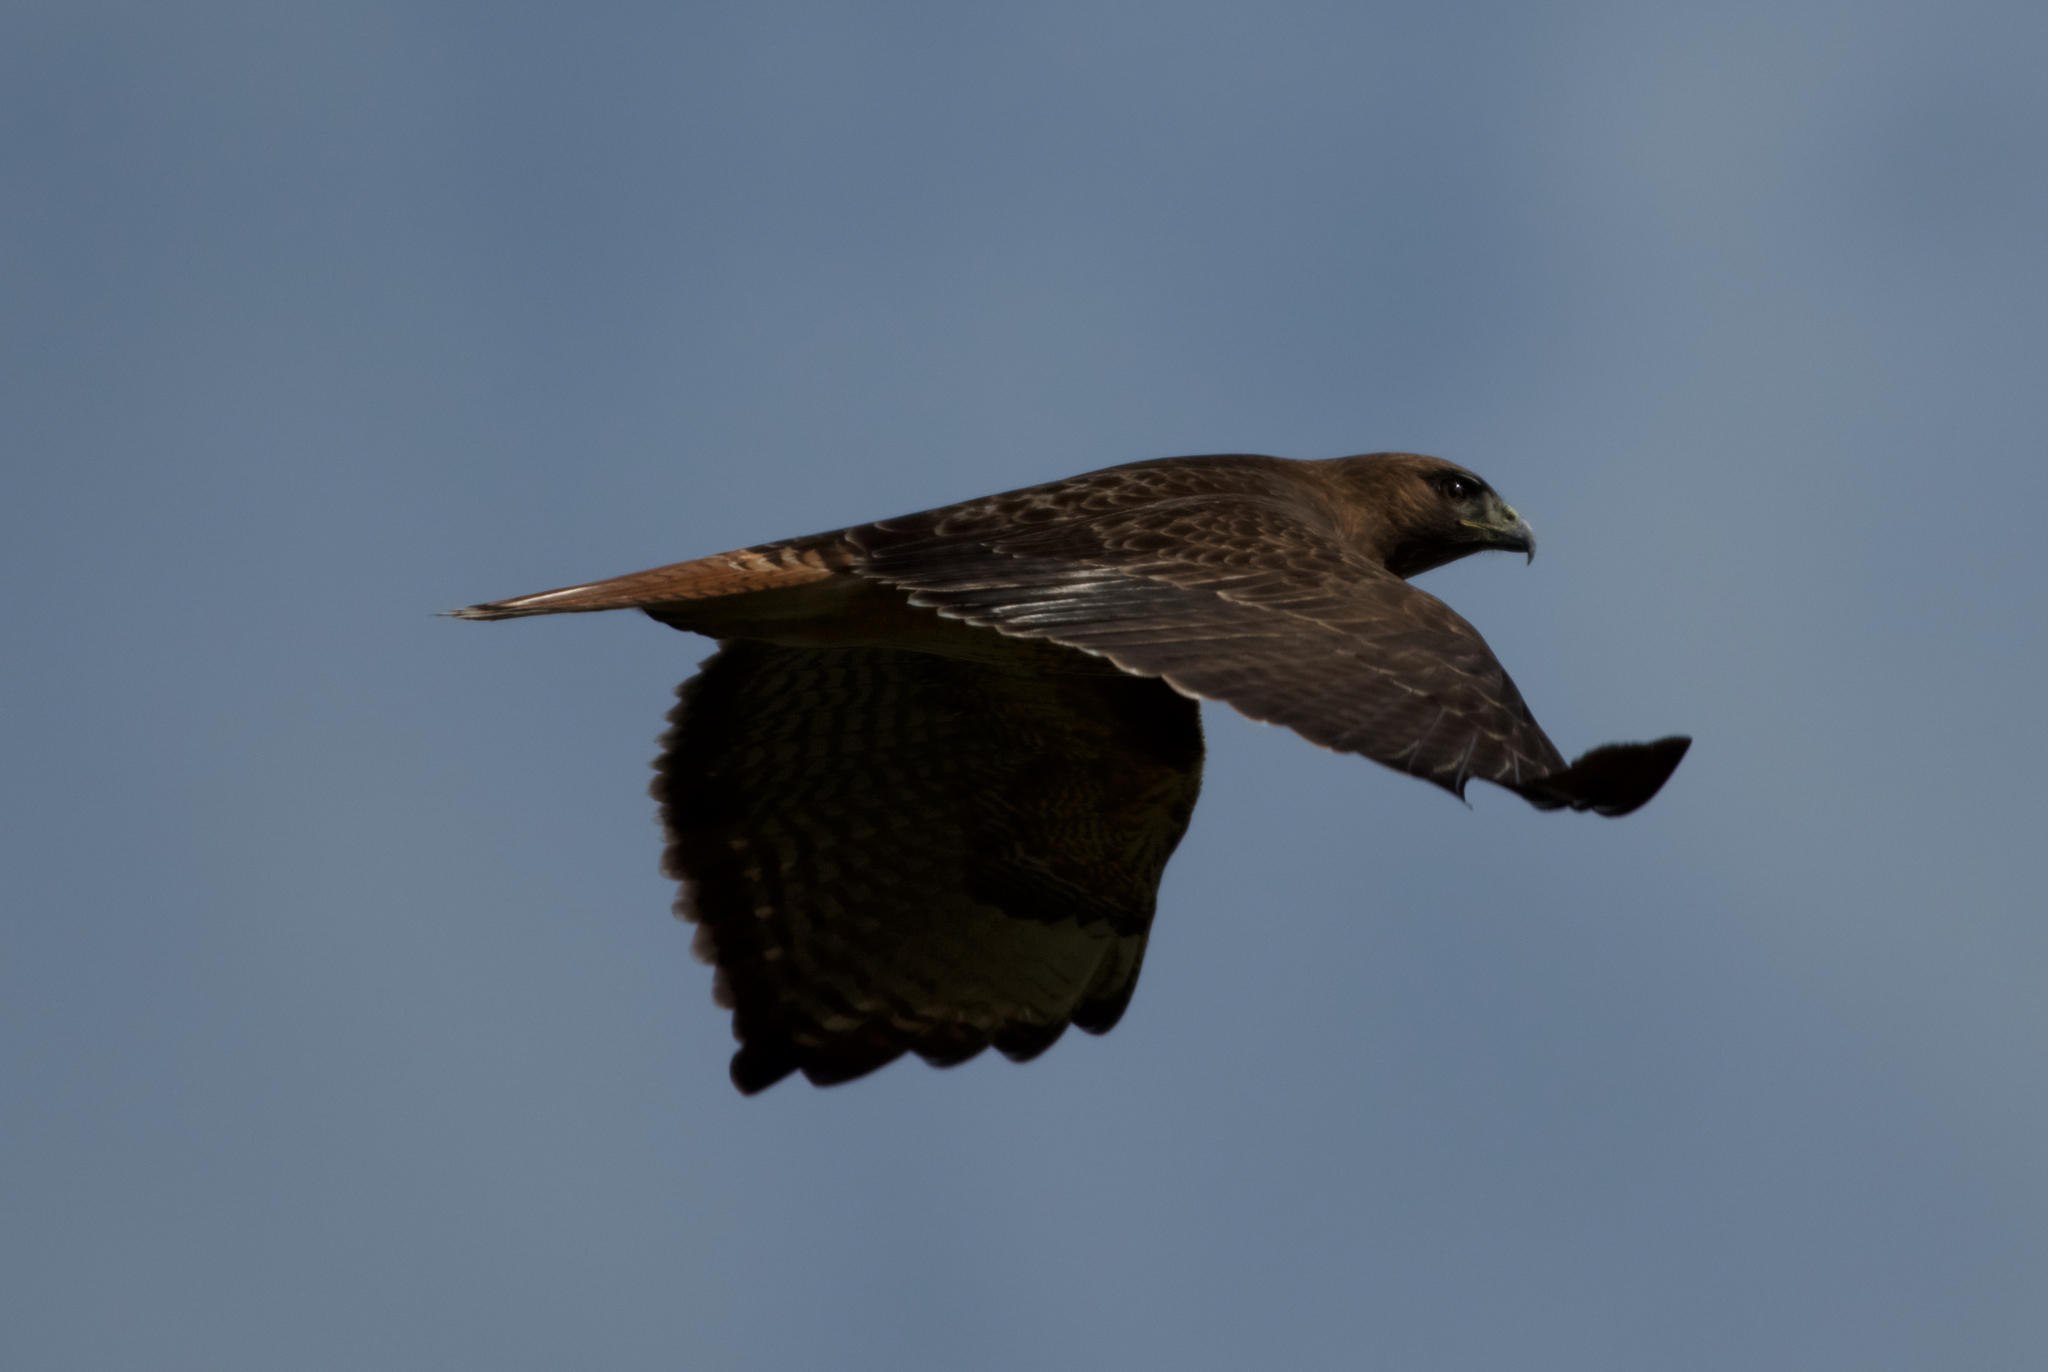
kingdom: Animalia
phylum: Chordata
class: Aves
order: Accipitriformes
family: Accipitridae
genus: Buteo
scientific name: Buteo jamaicensis
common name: Red-tailed hawk
